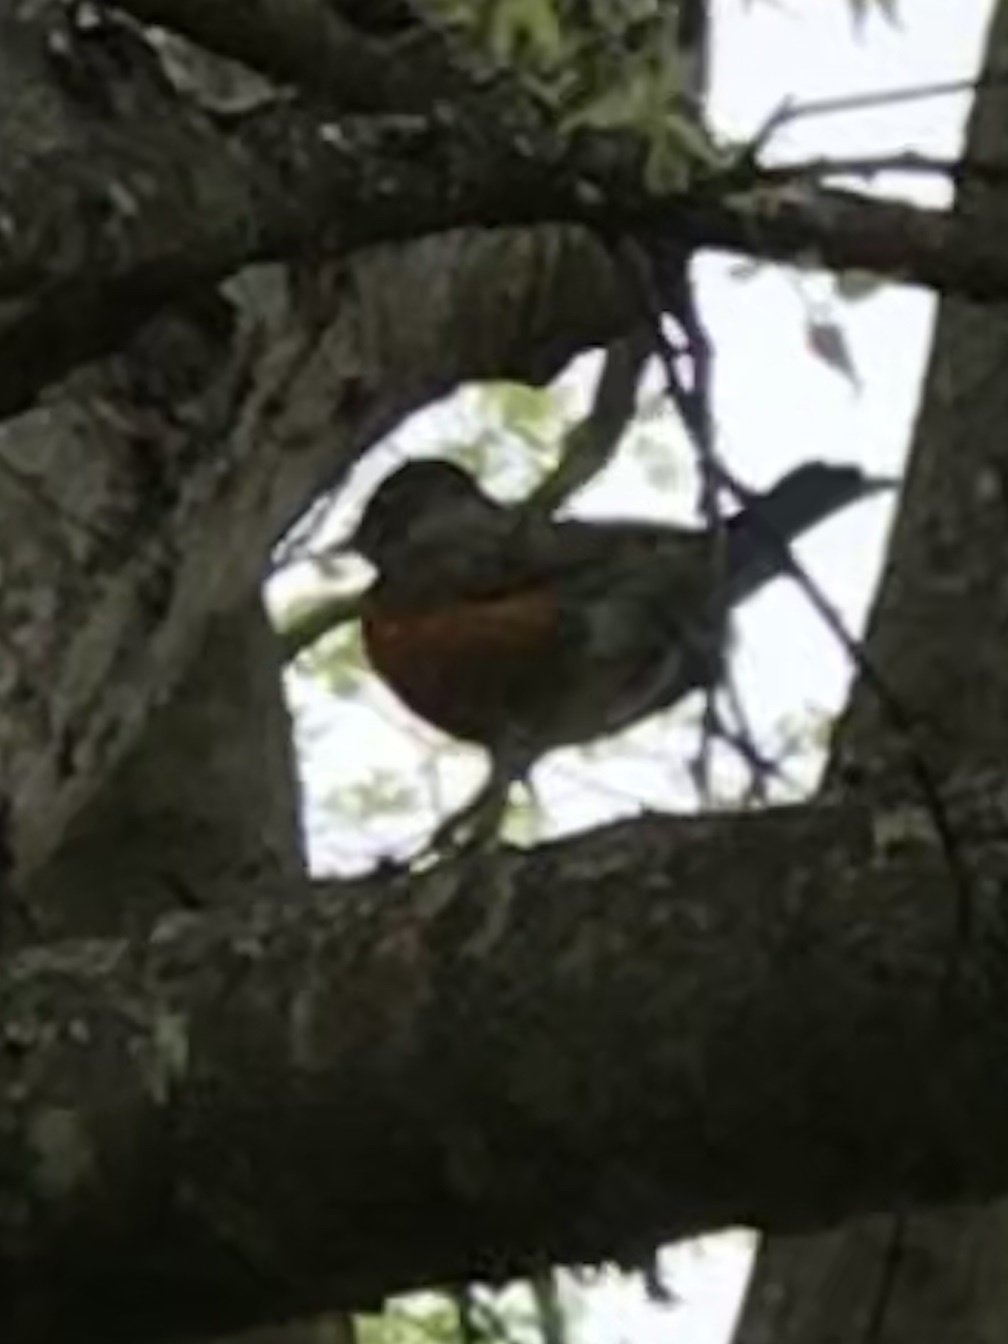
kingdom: Animalia
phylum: Chordata
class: Aves
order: Passeriformes
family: Turdidae
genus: Turdus
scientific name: Turdus migratorius
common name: American robin
